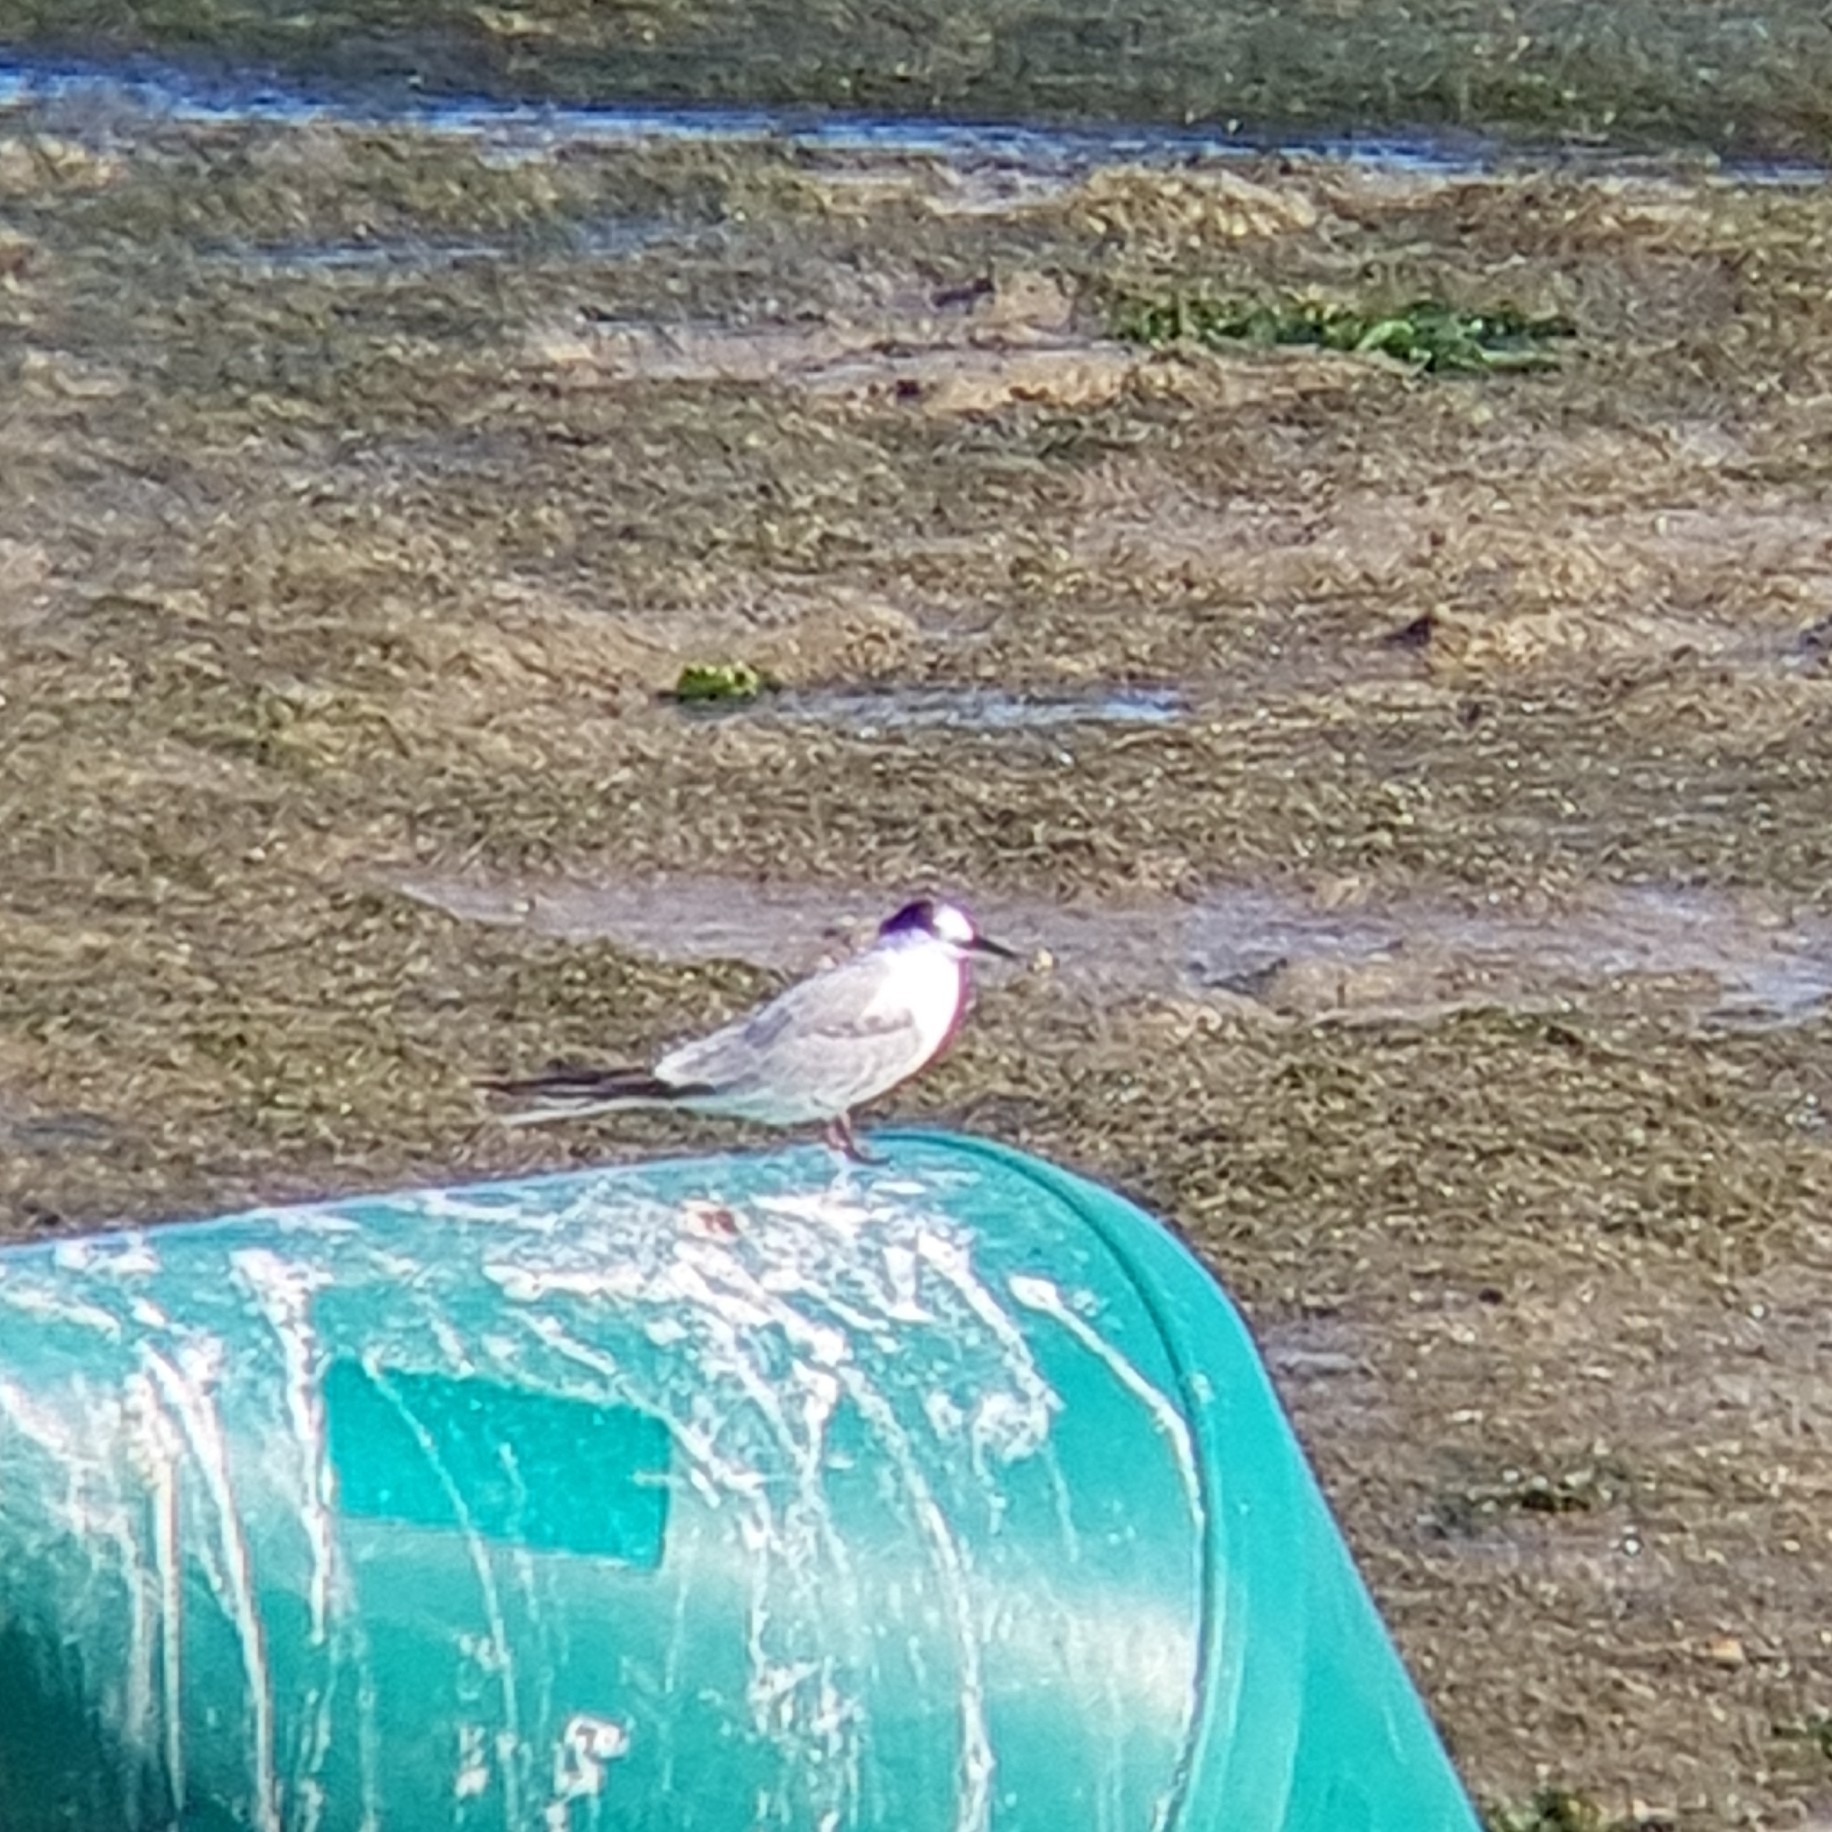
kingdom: Animalia
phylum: Chordata
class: Aves
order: Charadriiformes
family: Laridae
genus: Sterna
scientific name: Sterna hirundo
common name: Common tern
